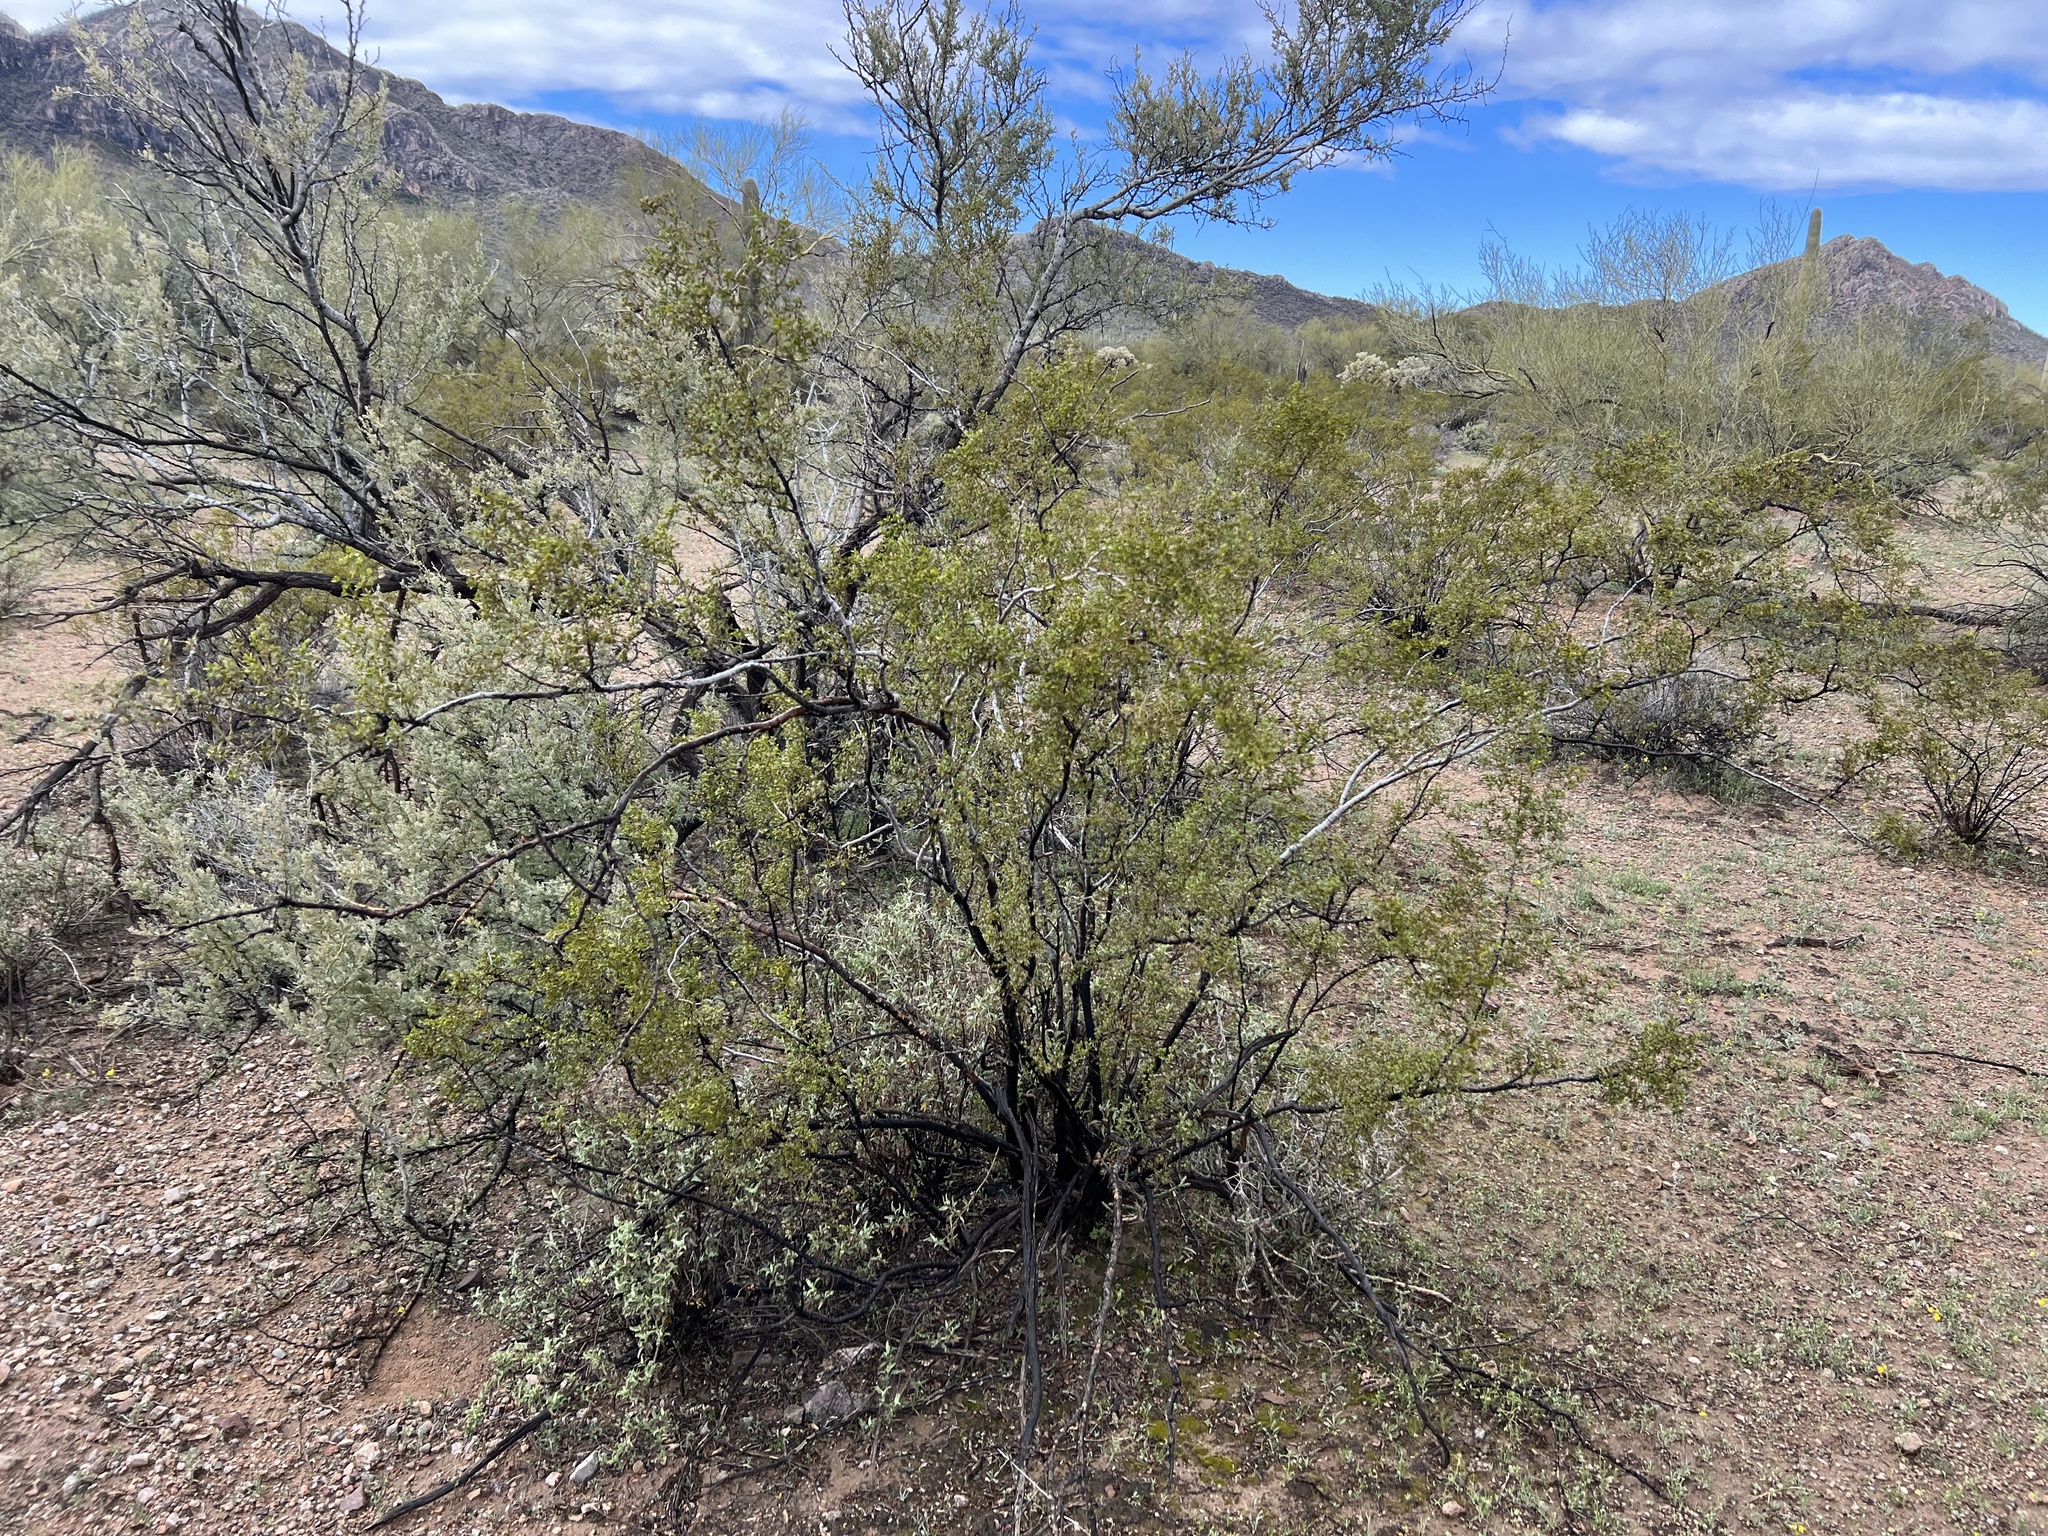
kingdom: Plantae
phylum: Tracheophyta
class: Magnoliopsida
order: Zygophyllales
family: Zygophyllaceae
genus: Larrea
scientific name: Larrea tridentata
